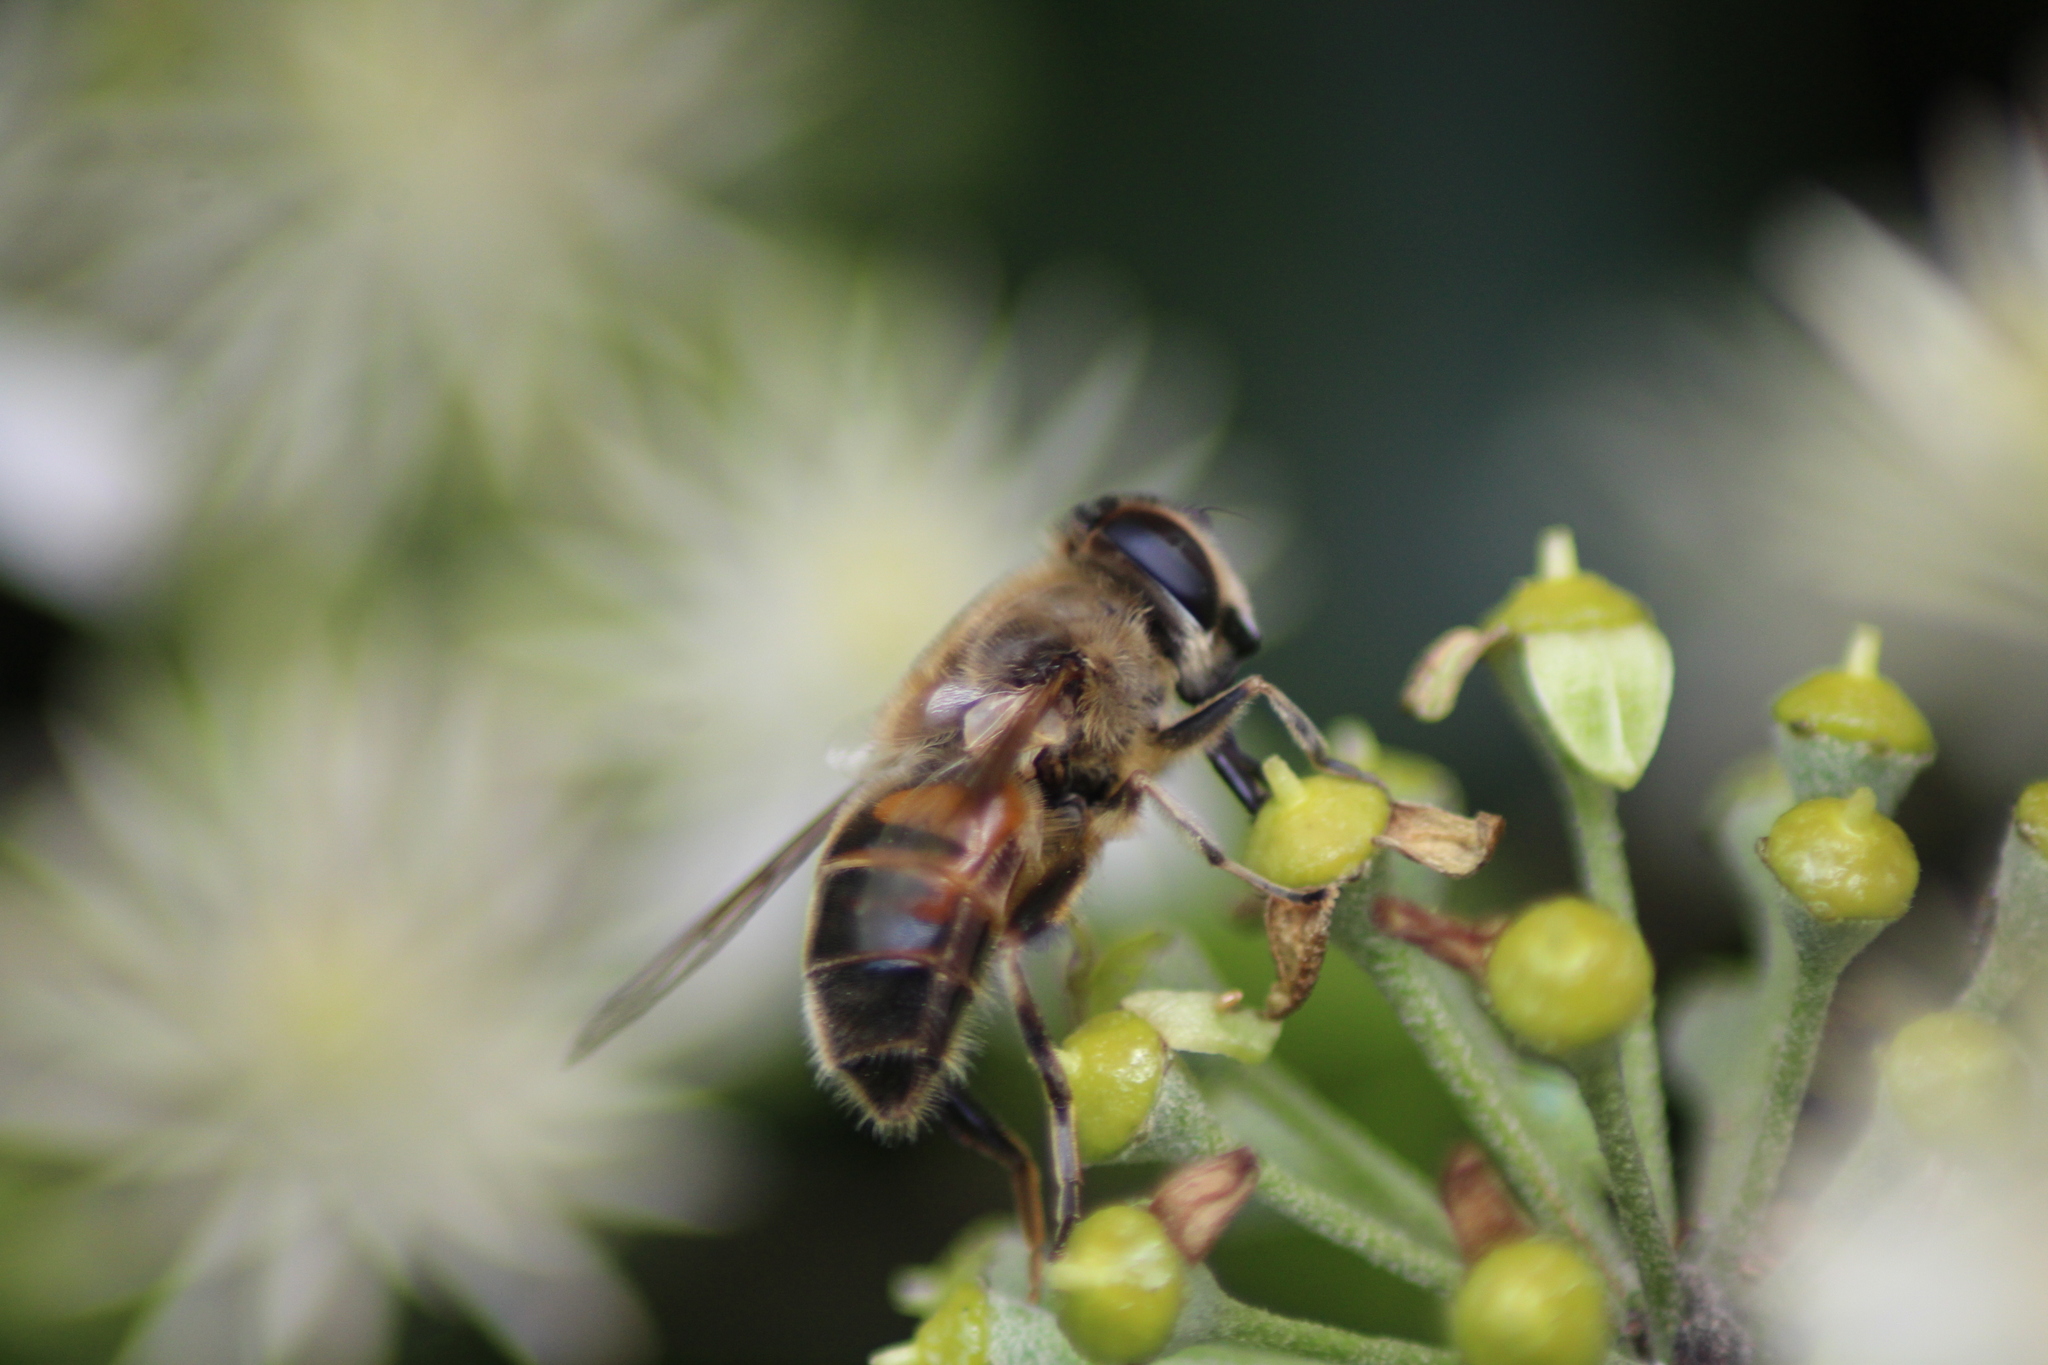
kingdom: Animalia
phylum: Arthropoda
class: Insecta
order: Diptera
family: Syrphidae
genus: Eristalis
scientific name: Eristalis tenax
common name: Drone fly
